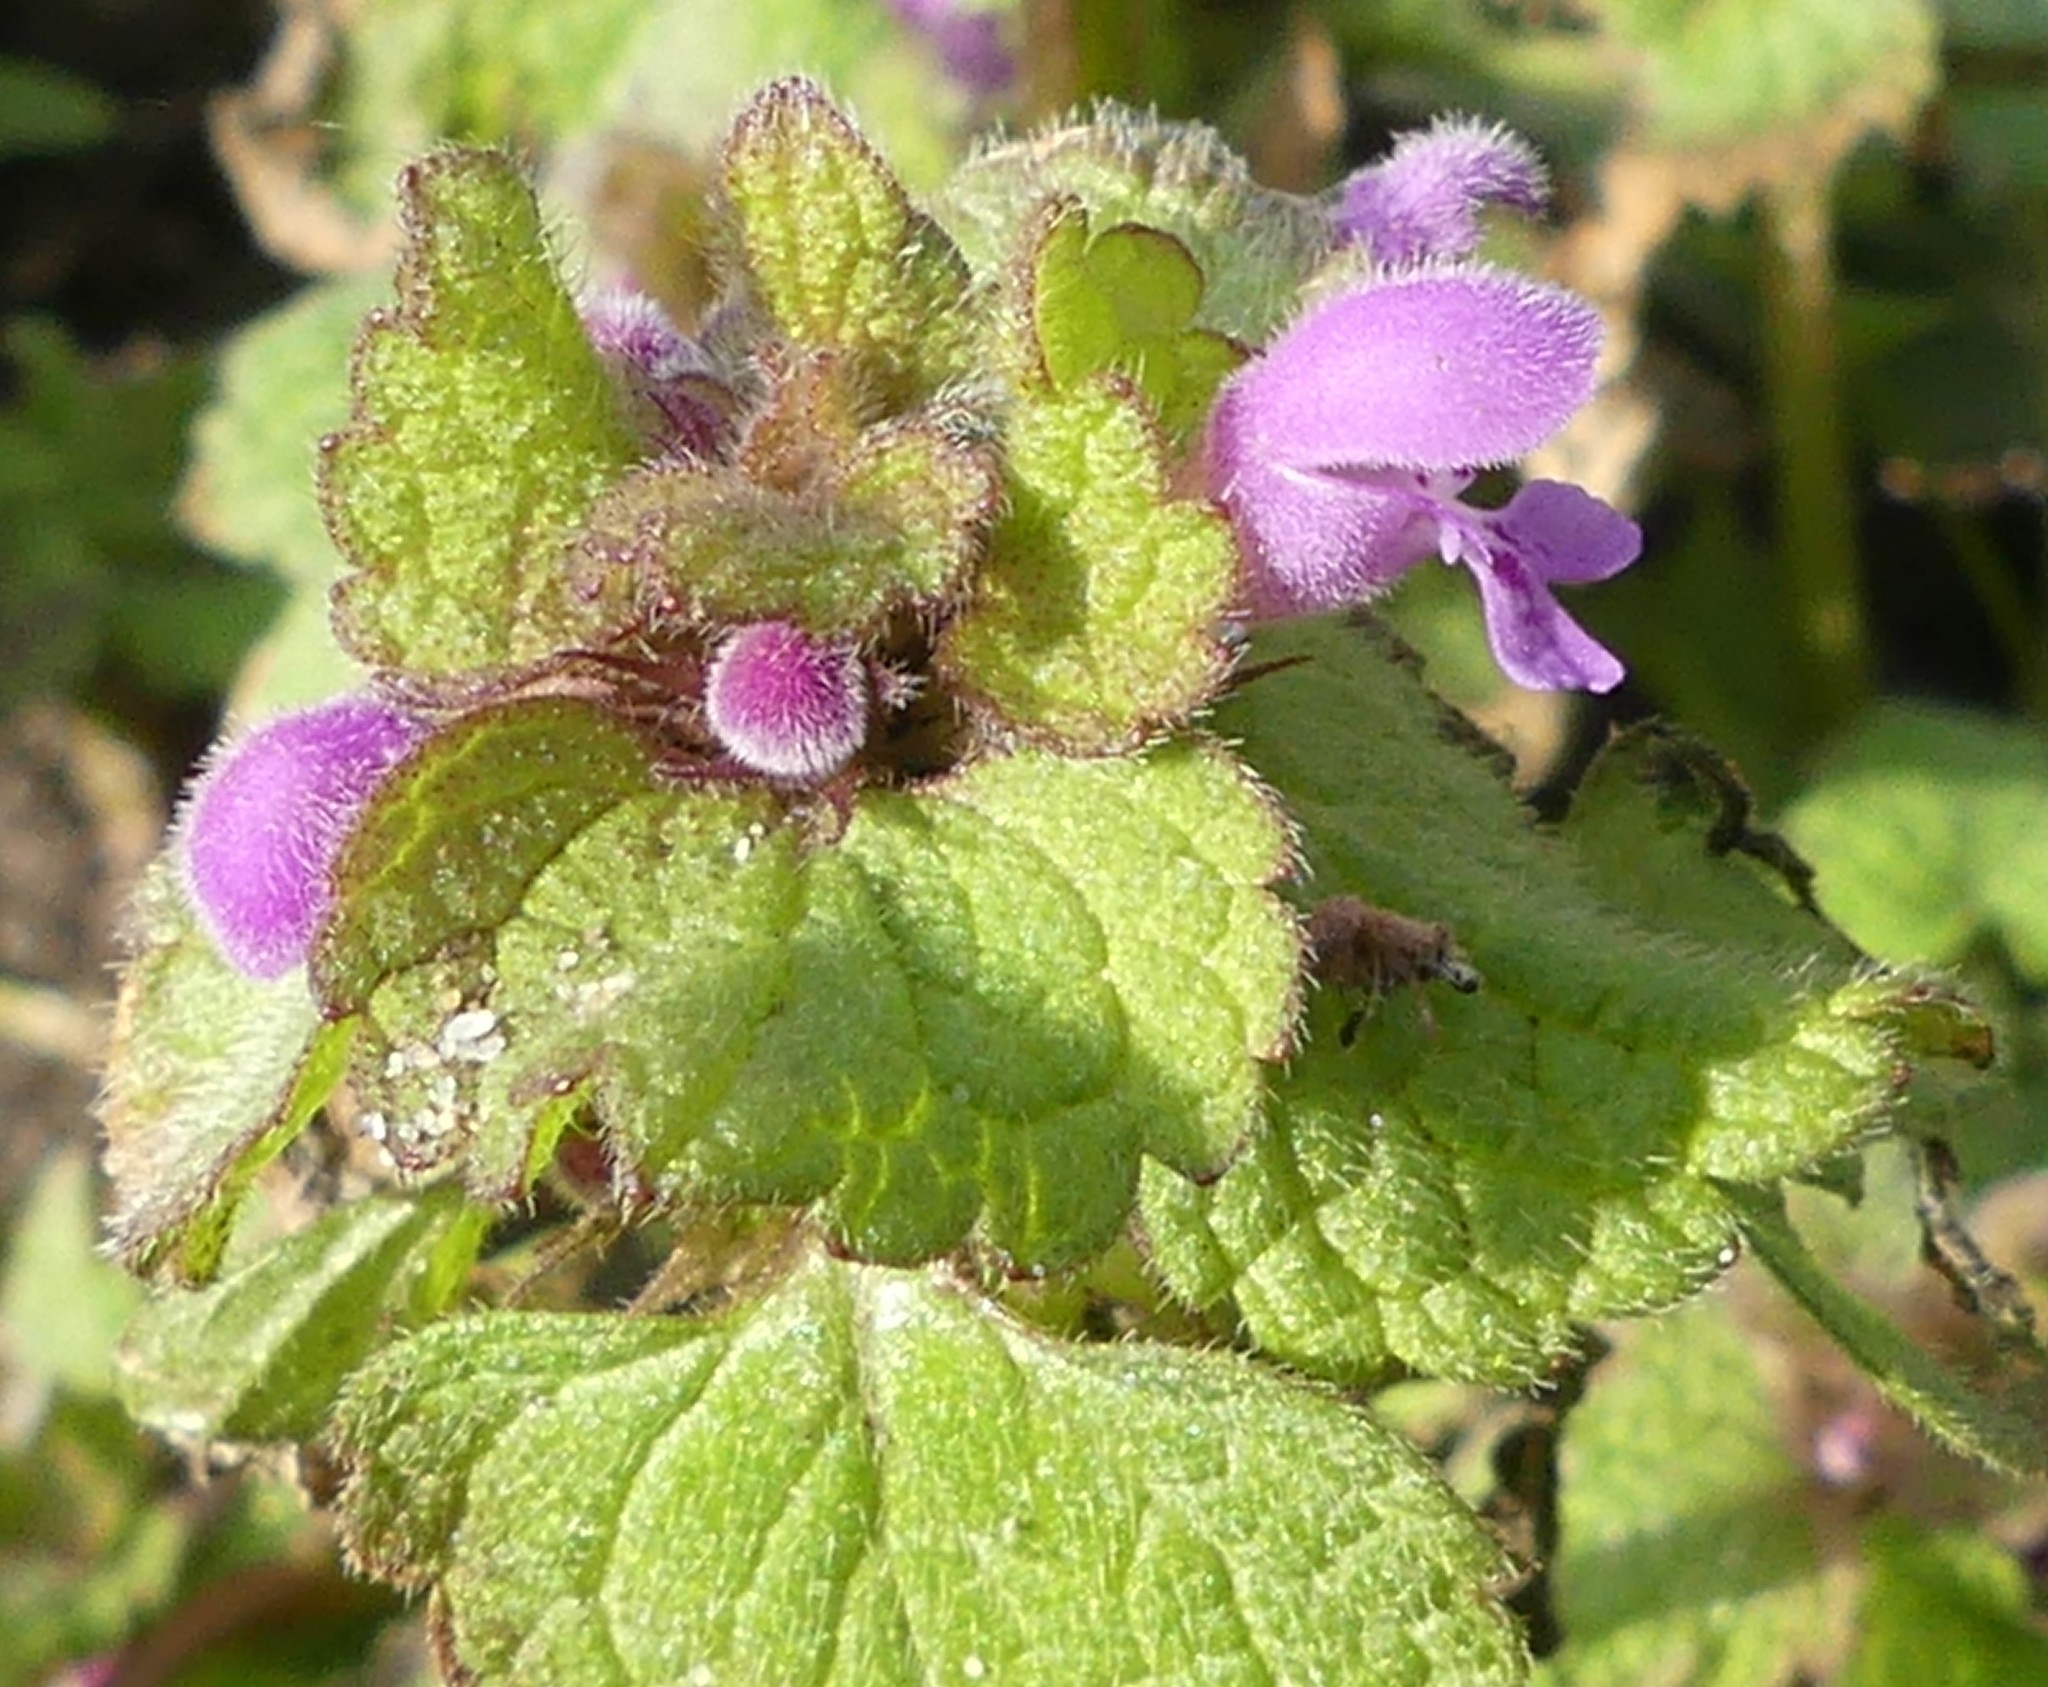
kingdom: Plantae
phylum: Tracheophyta
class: Magnoliopsida
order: Lamiales
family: Lamiaceae
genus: Lamium
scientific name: Lamium purpureum
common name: Red dead-nettle
